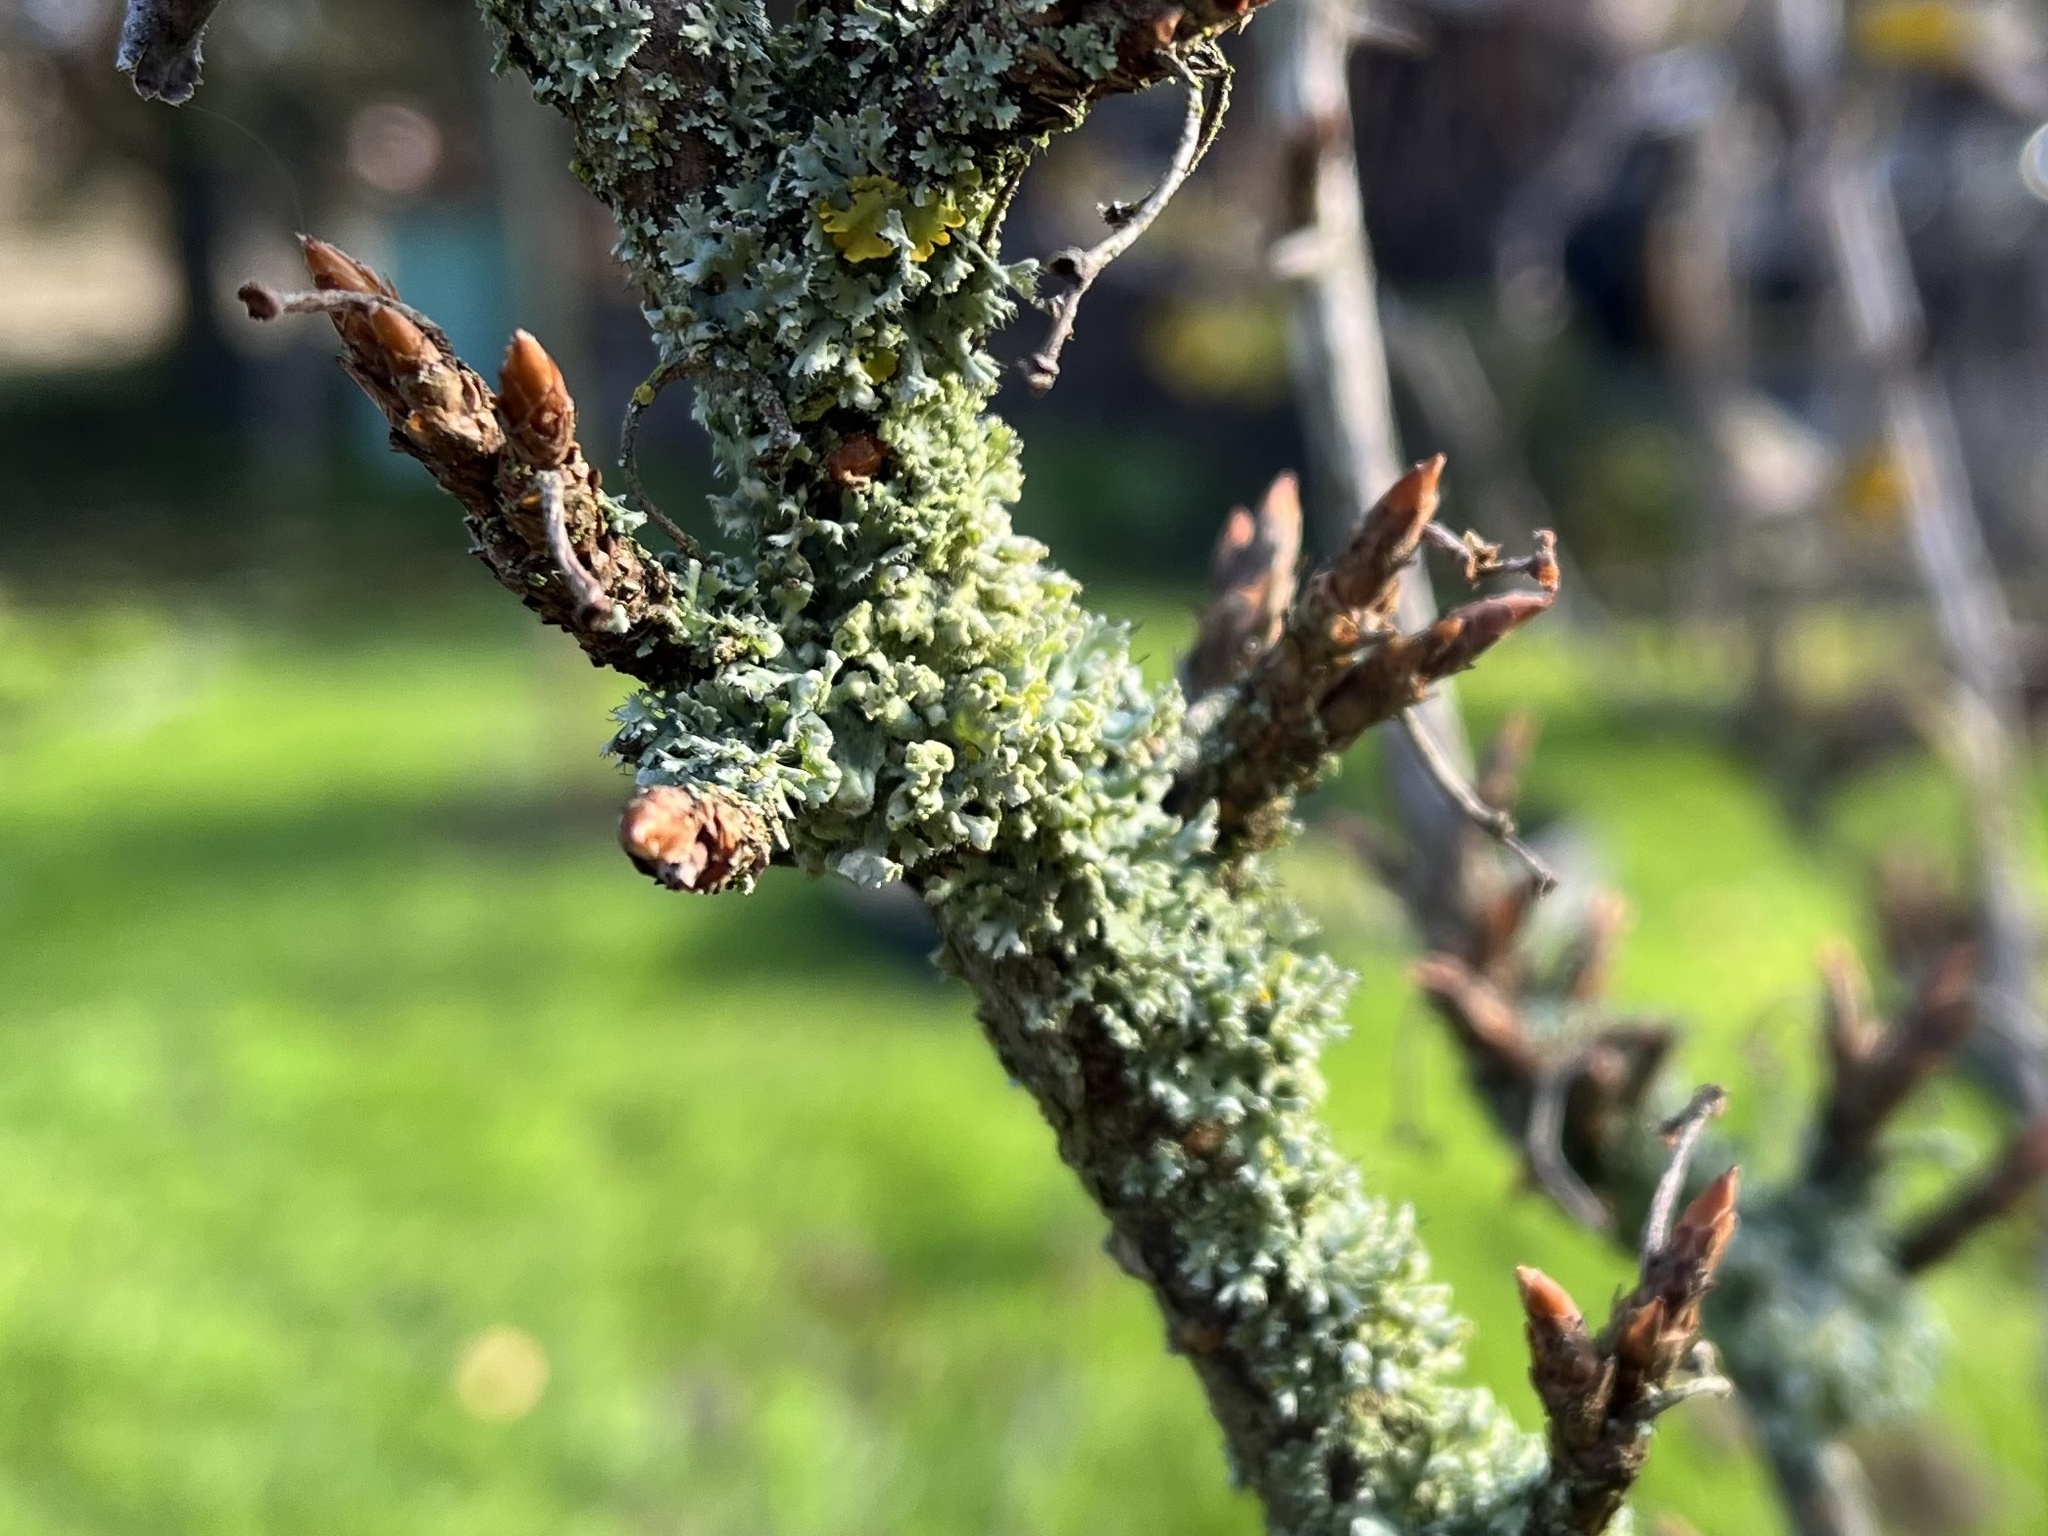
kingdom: Fungi
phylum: Ascomycota
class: Lecanoromycetes
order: Caliciales
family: Physciaceae
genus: Physcia
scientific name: Physcia adscendens
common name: Hooded rosette lichen
